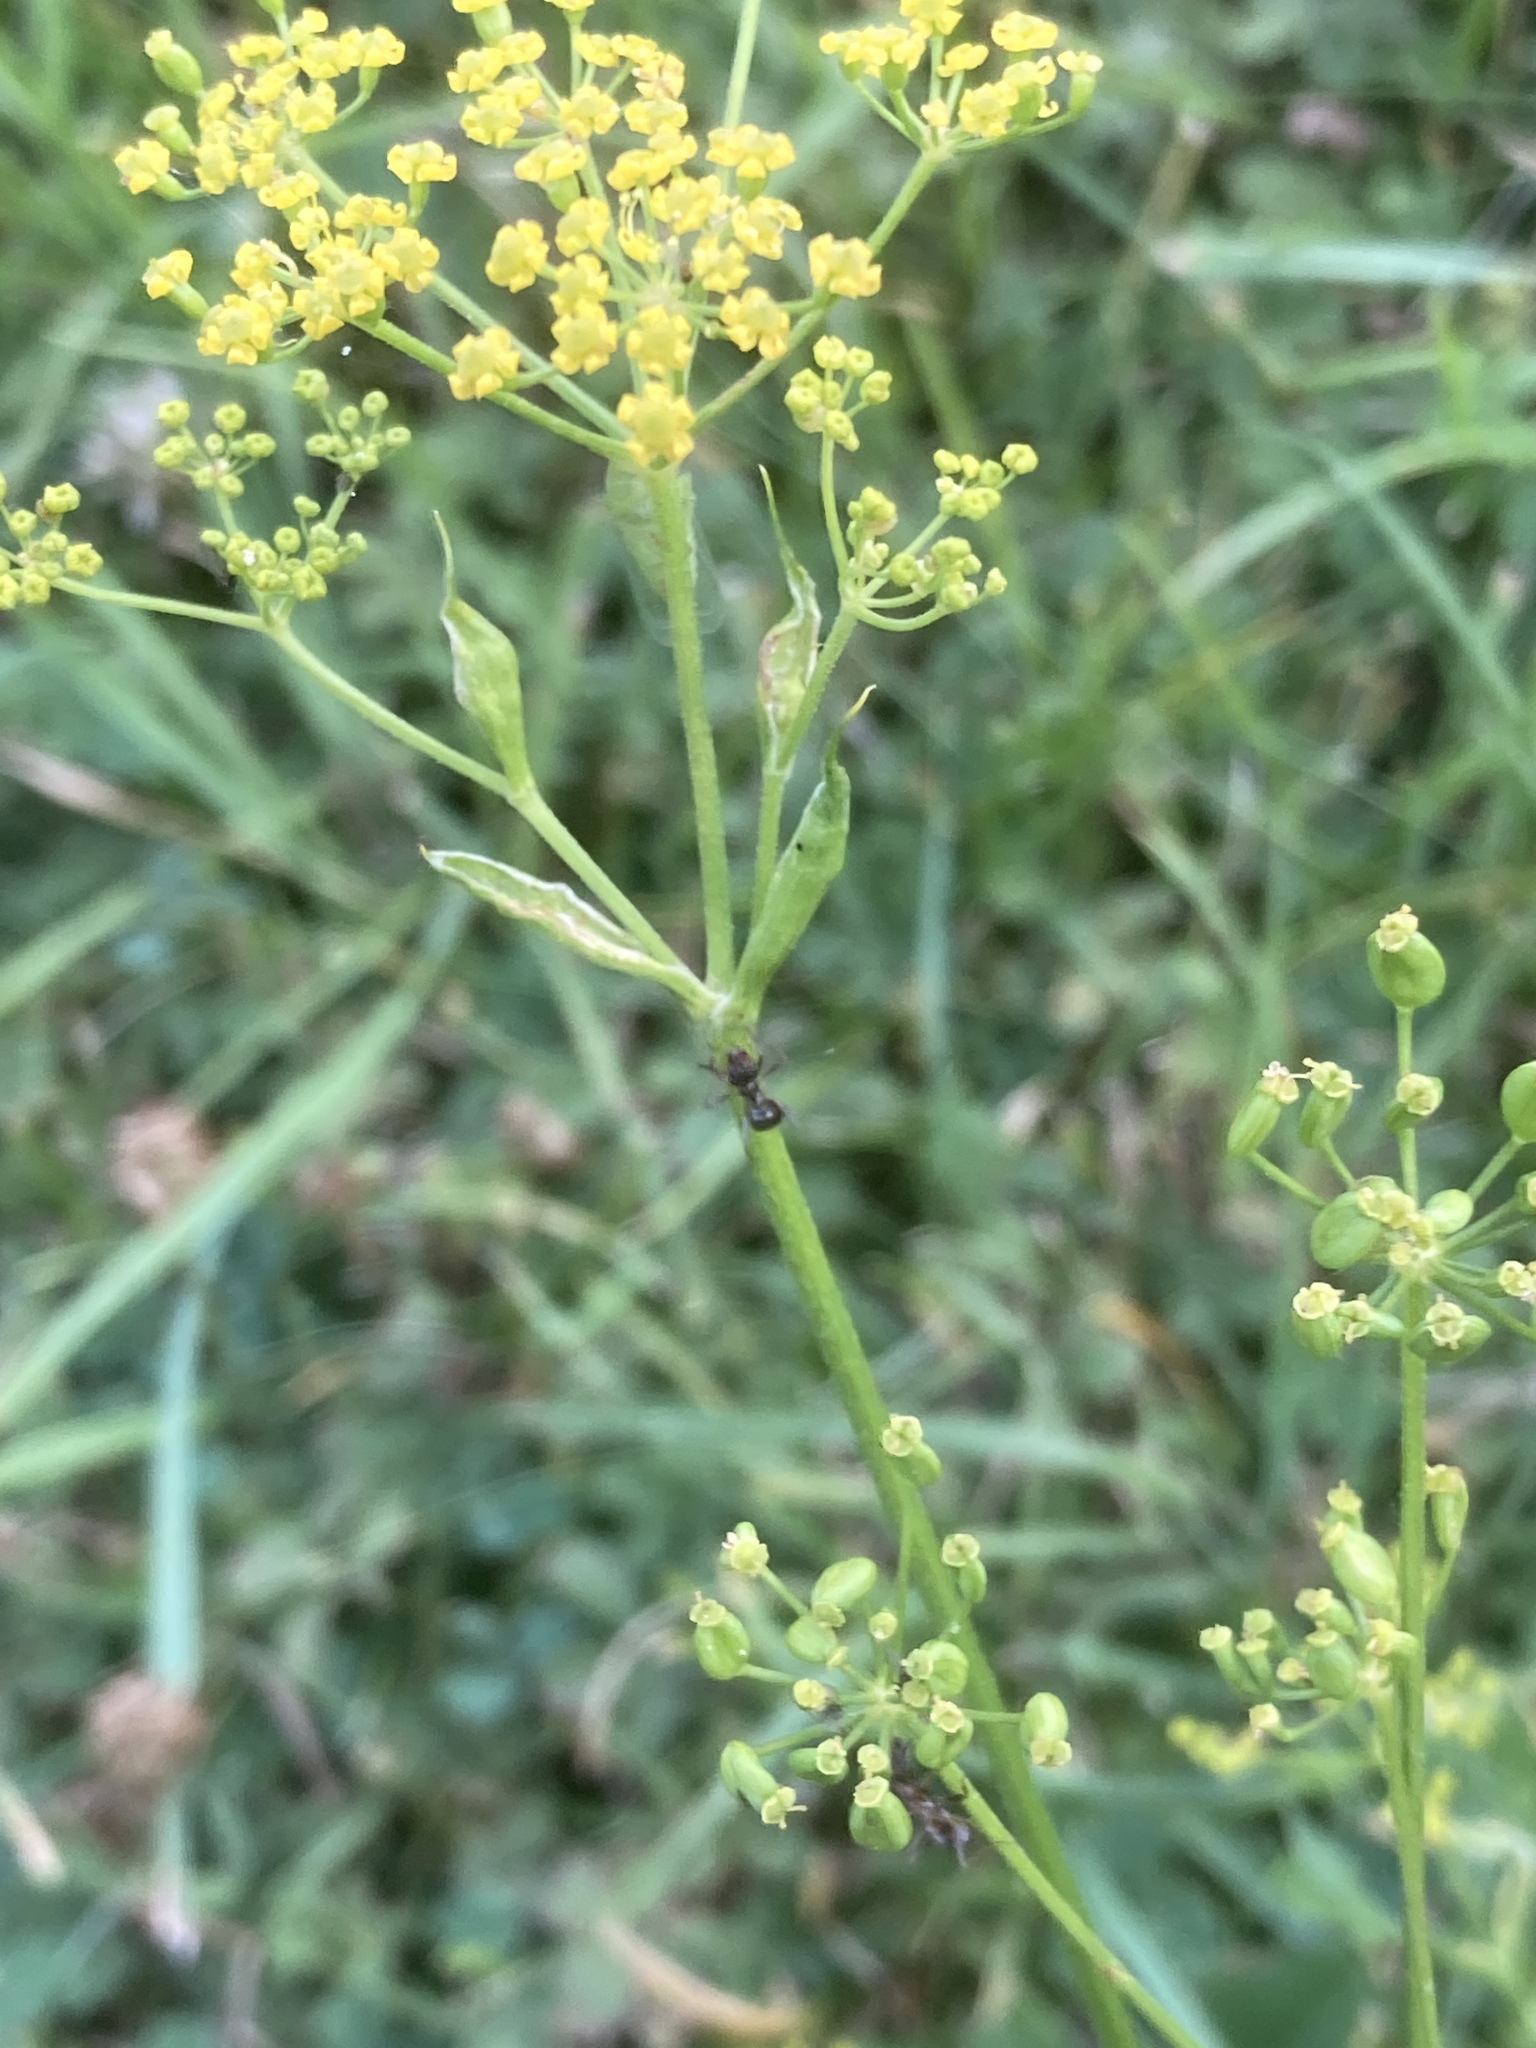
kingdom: Plantae
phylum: Tracheophyta
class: Magnoliopsida
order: Apiales
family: Apiaceae
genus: Pastinaca
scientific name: Pastinaca sativa
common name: Wild parsnip
